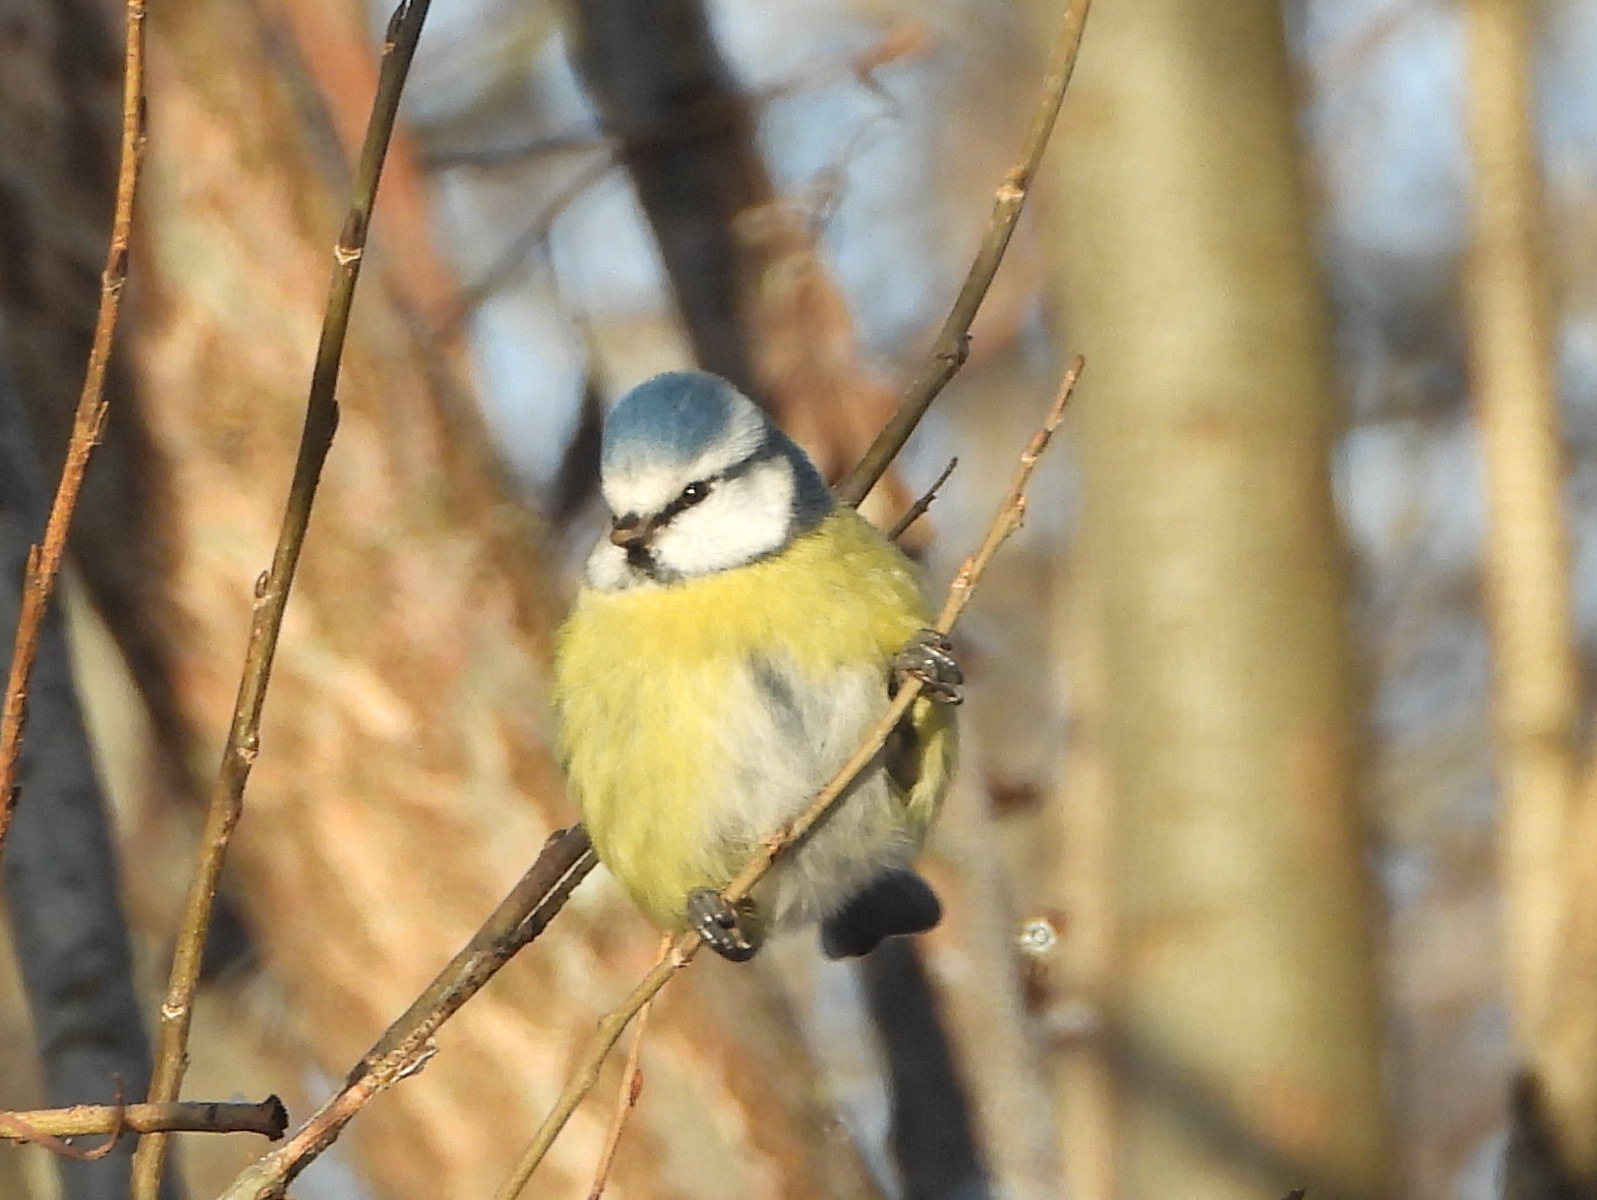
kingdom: Animalia
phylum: Chordata
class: Aves
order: Passeriformes
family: Paridae
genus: Cyanistes
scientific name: Cyanistes caeruleus
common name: Eurasian blue tit
